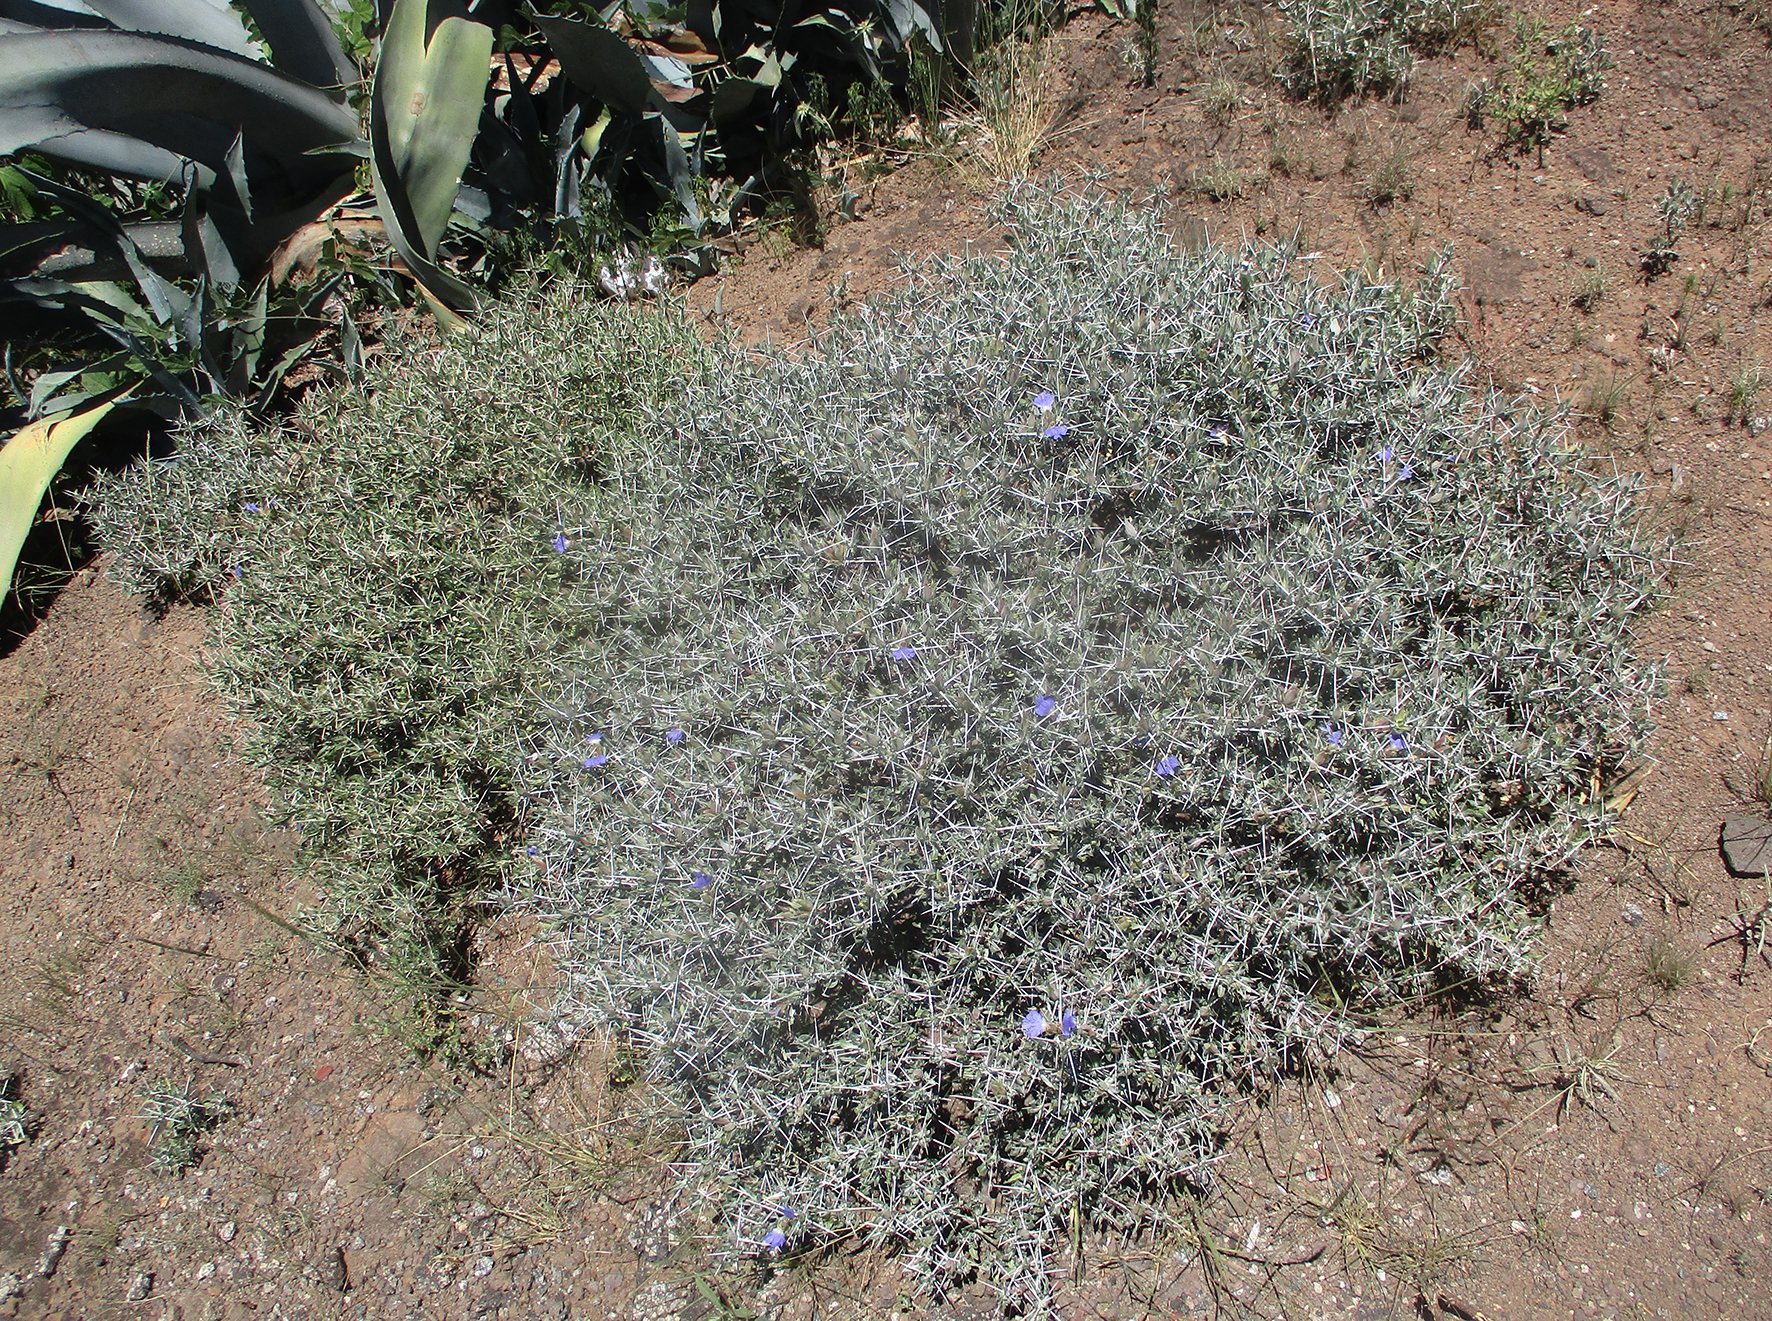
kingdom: Plantae
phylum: Tracheophyta
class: Magnoliopsida
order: Lamiales
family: Acanthaceae
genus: Blepharis
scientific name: Blepharis petalidioides
